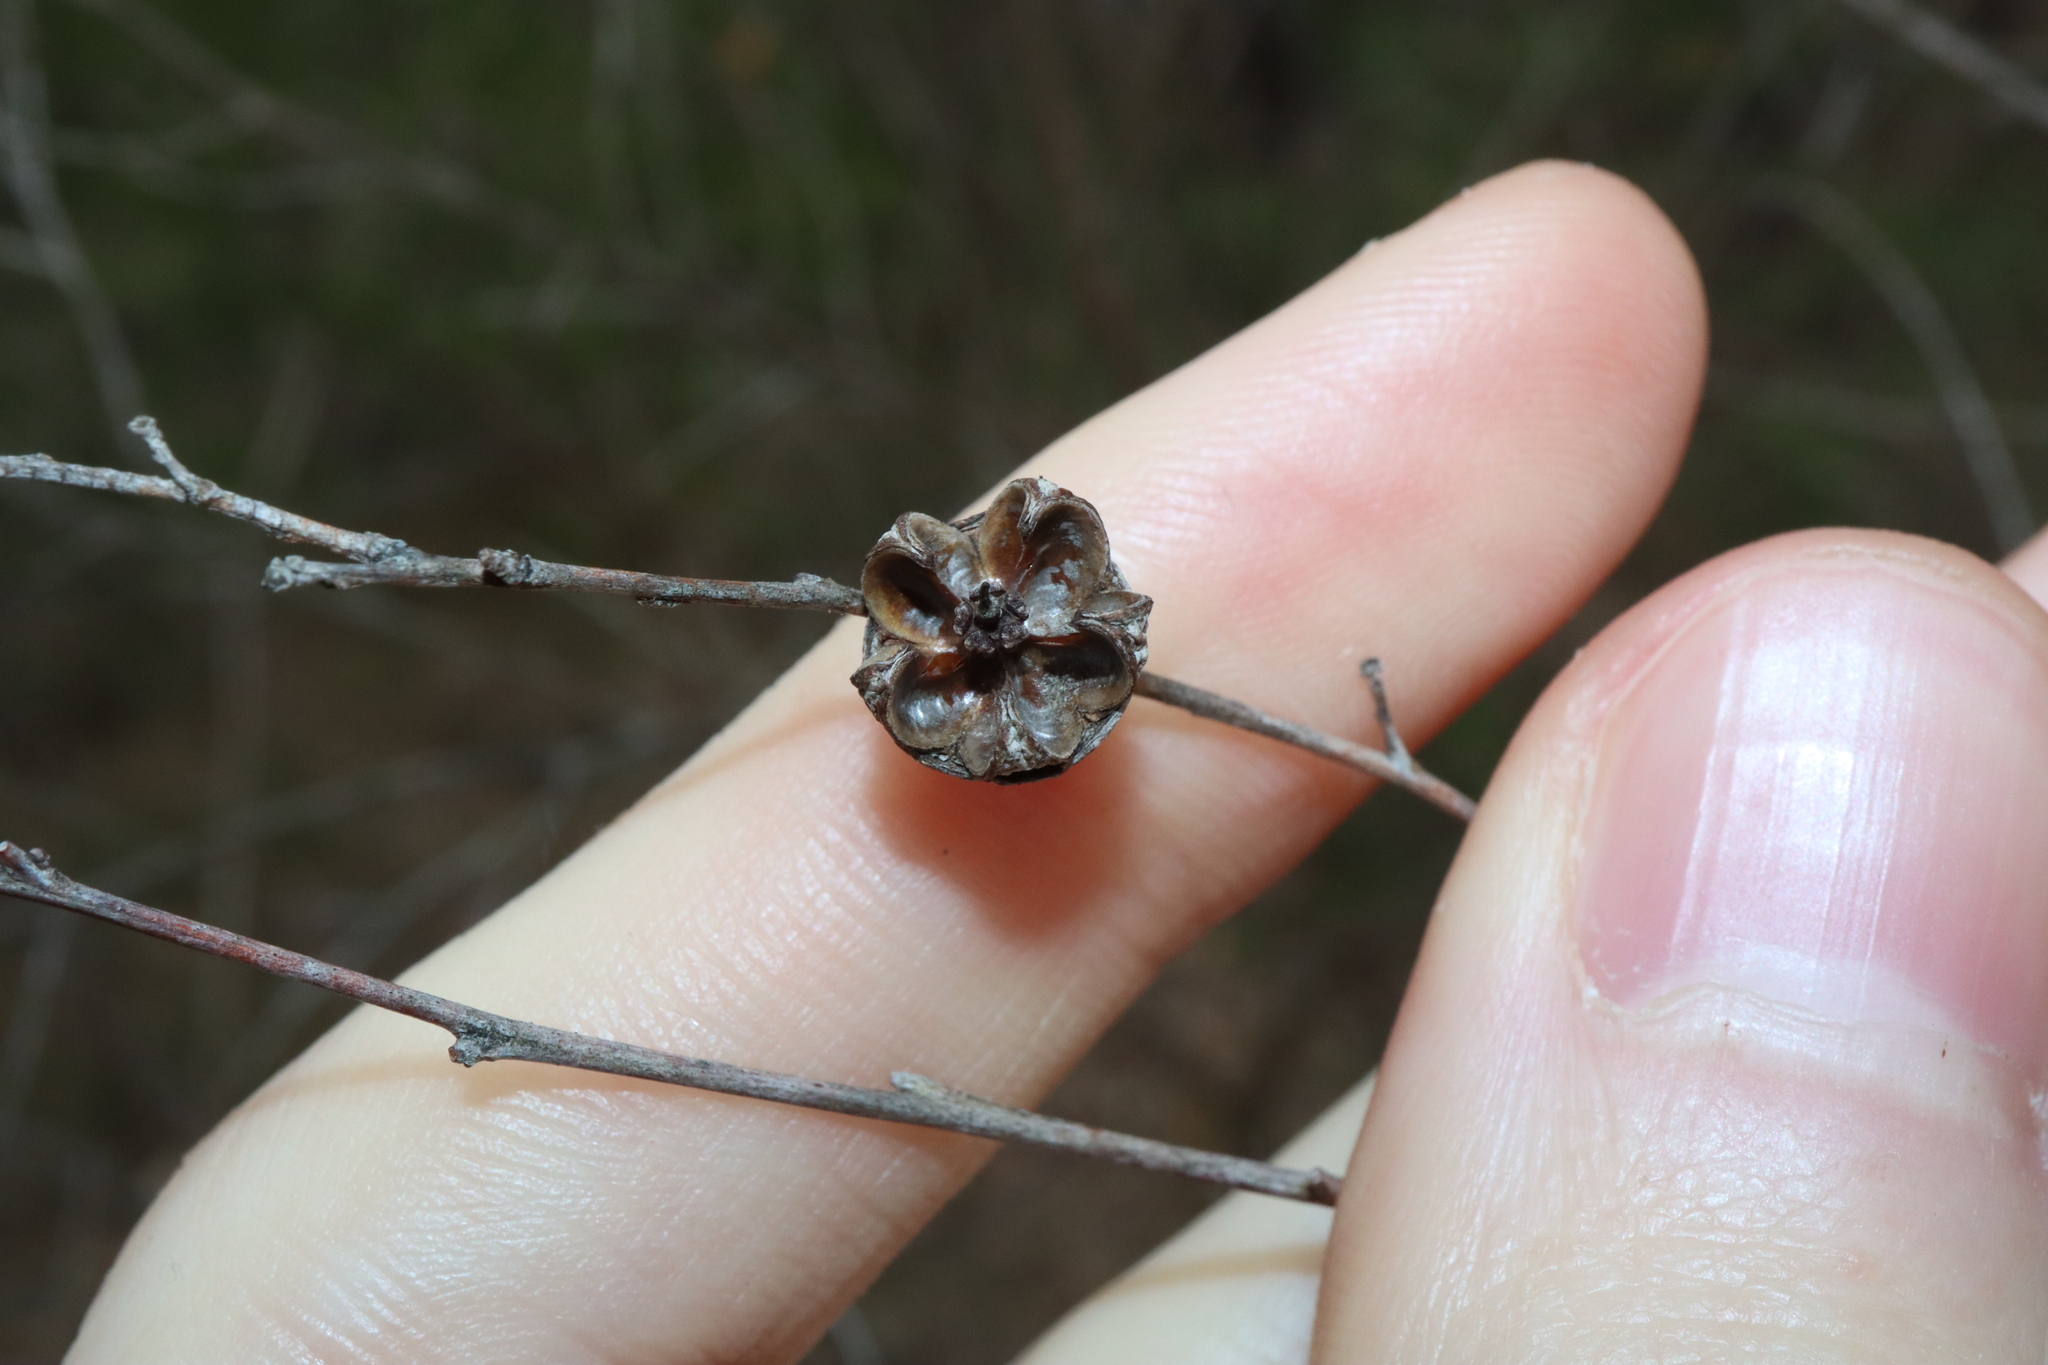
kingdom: Plantae
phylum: Tracheophyta
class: Magnoliopsida
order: Myrtales
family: Myrtaceae
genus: Leptospermum
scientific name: Leptospermum polygalifolium
